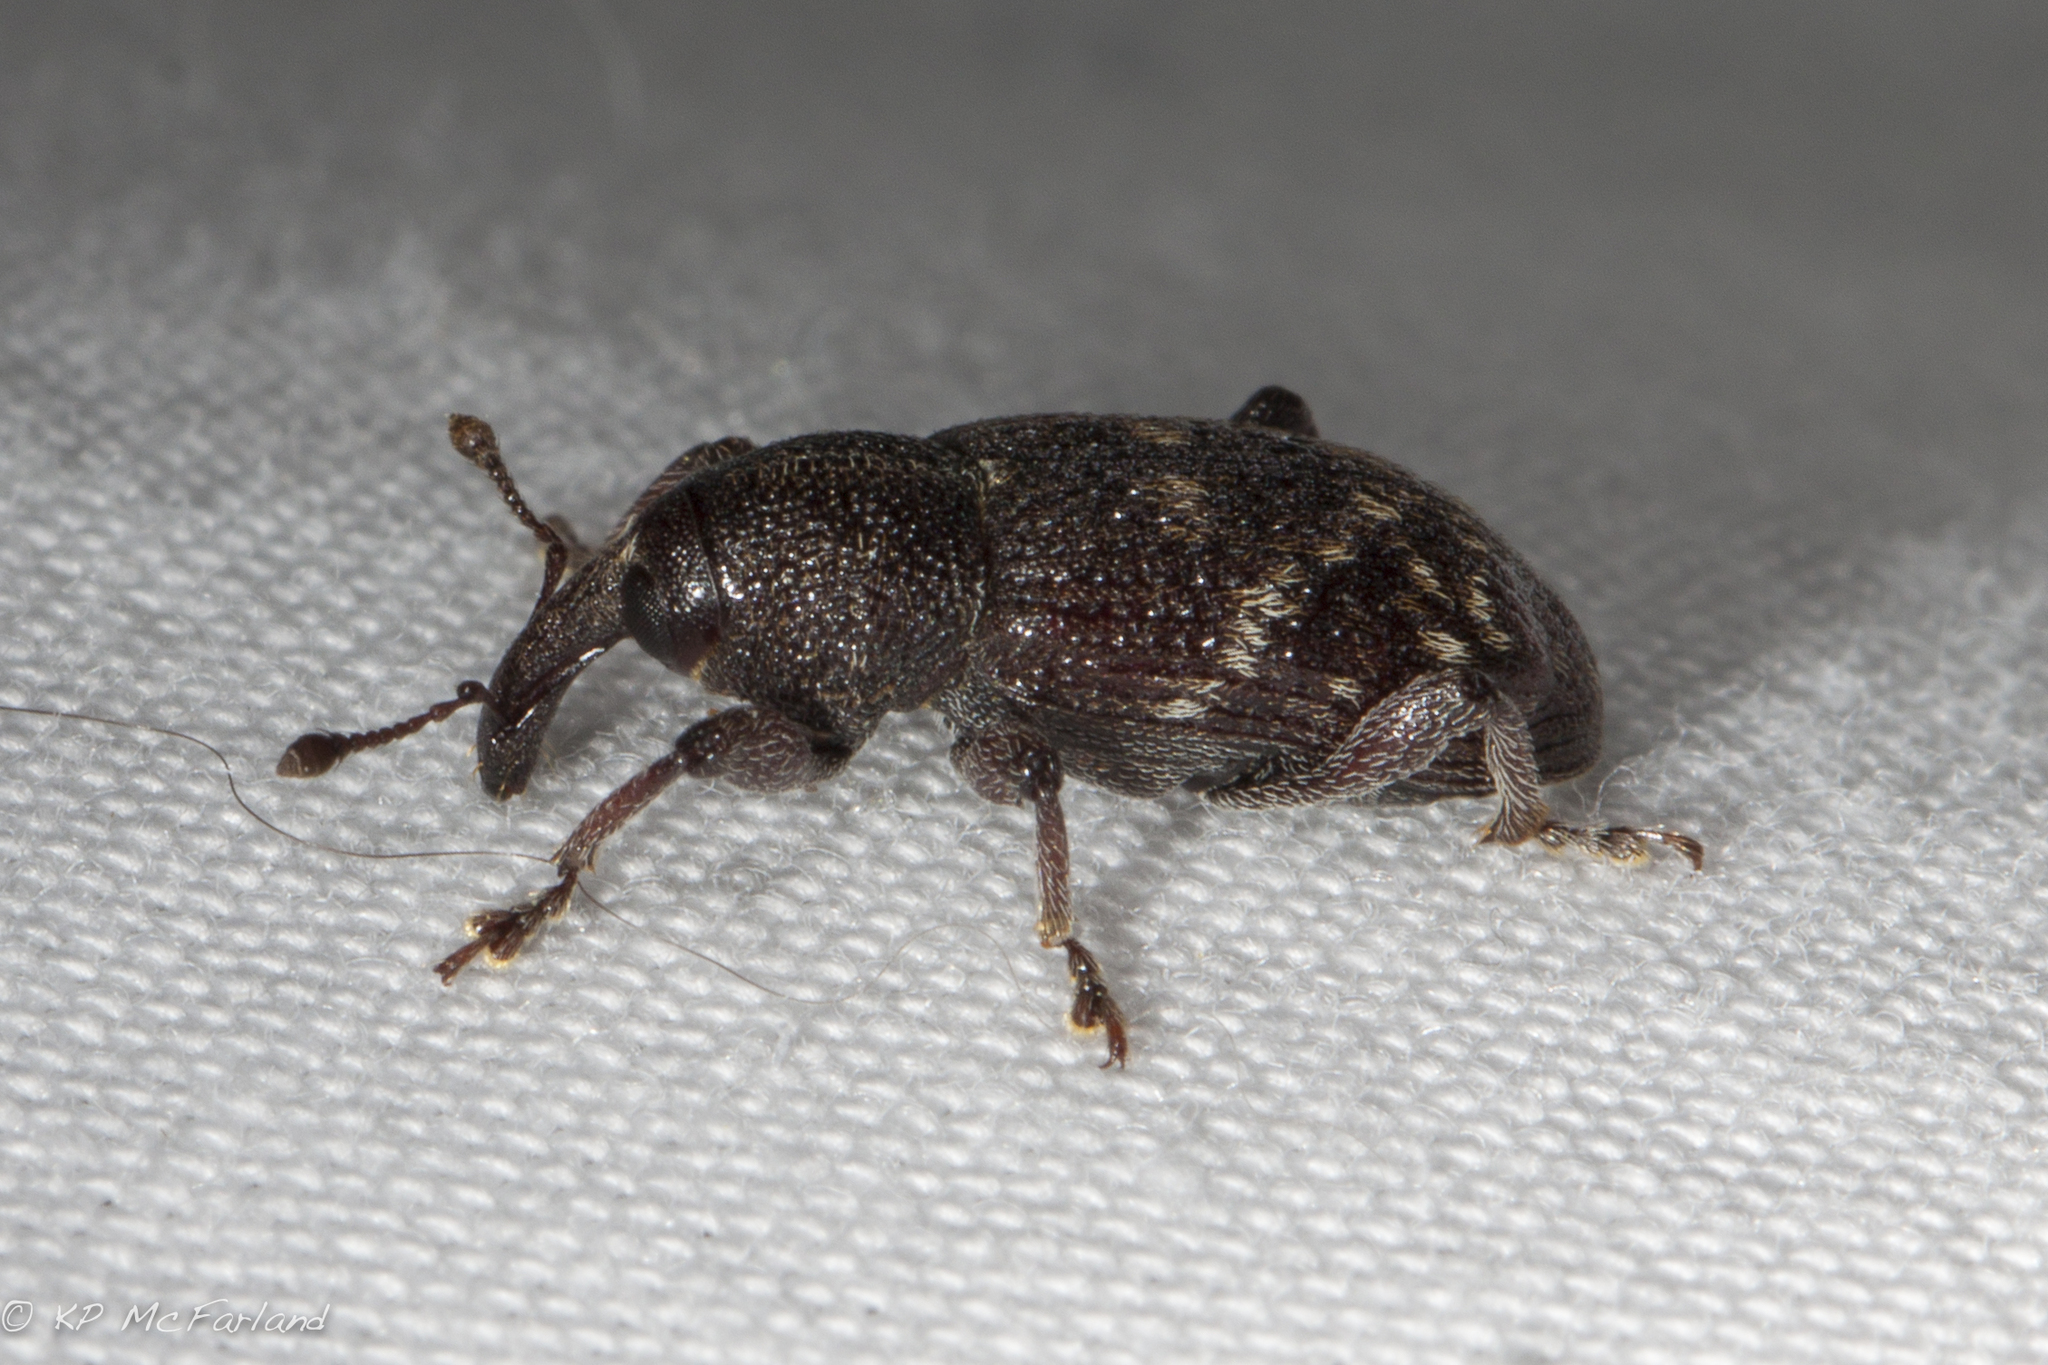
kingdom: Animalia
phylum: Arthropoda
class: Insecta
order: Coleoptera
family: Curculionidae
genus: Hylobius
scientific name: Hylobius pales
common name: Pales weevil
